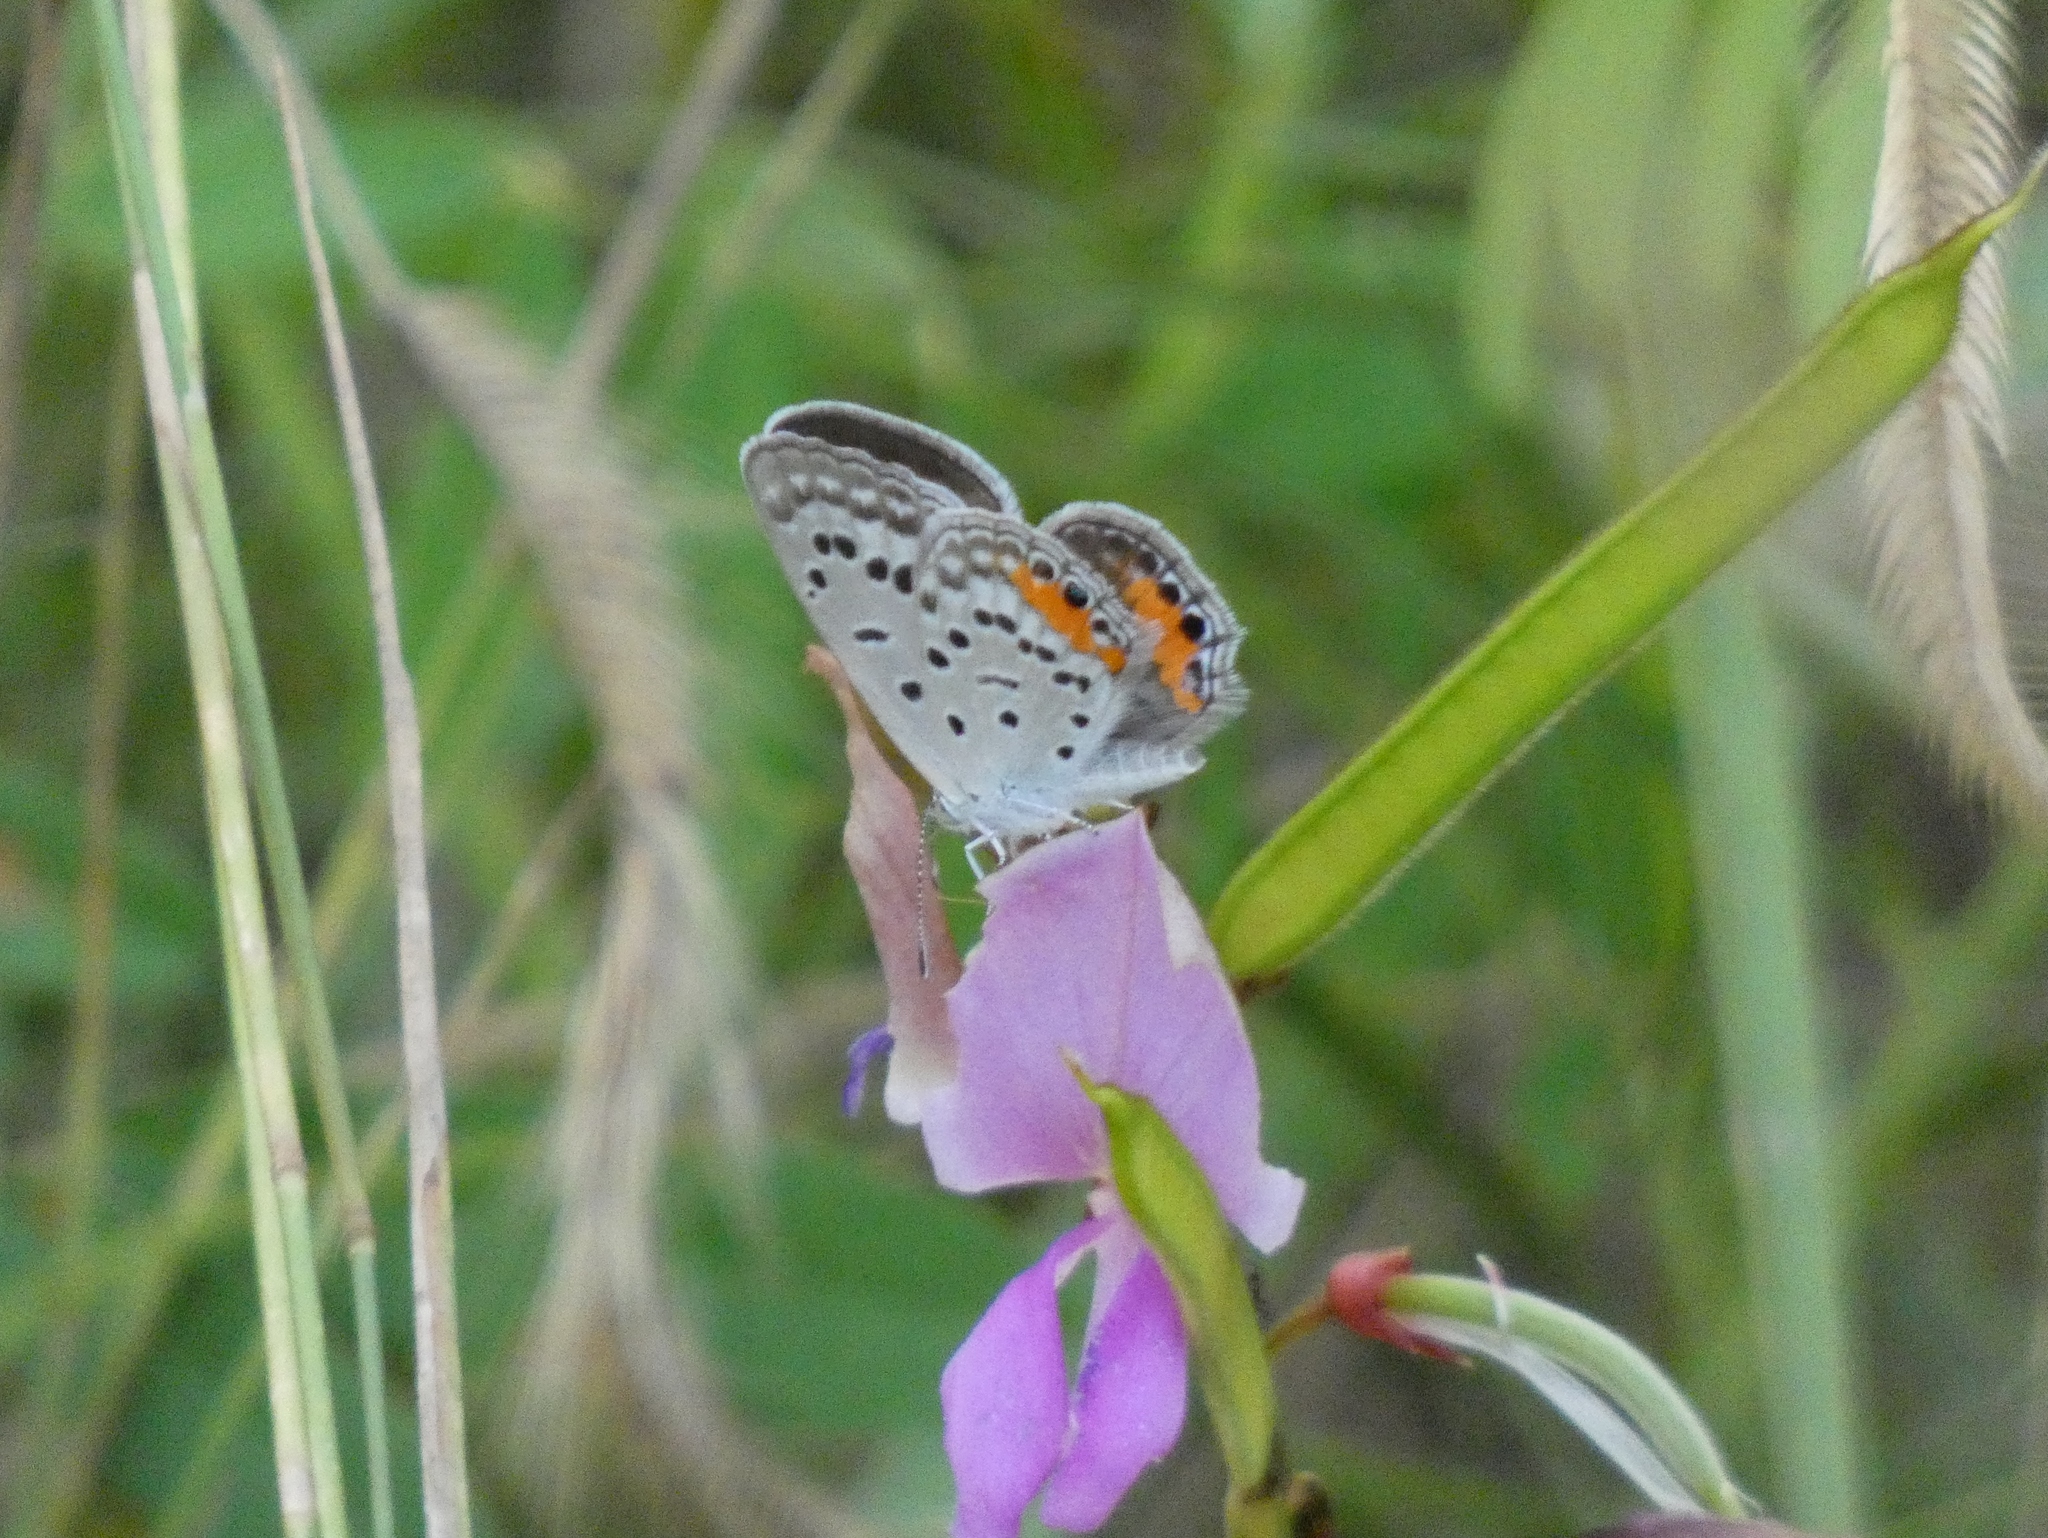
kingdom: Animalia
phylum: Arthropoda
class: Insecta
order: Lepidoptera
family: Lycaenidae
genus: Cupido
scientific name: Cupido cissus
